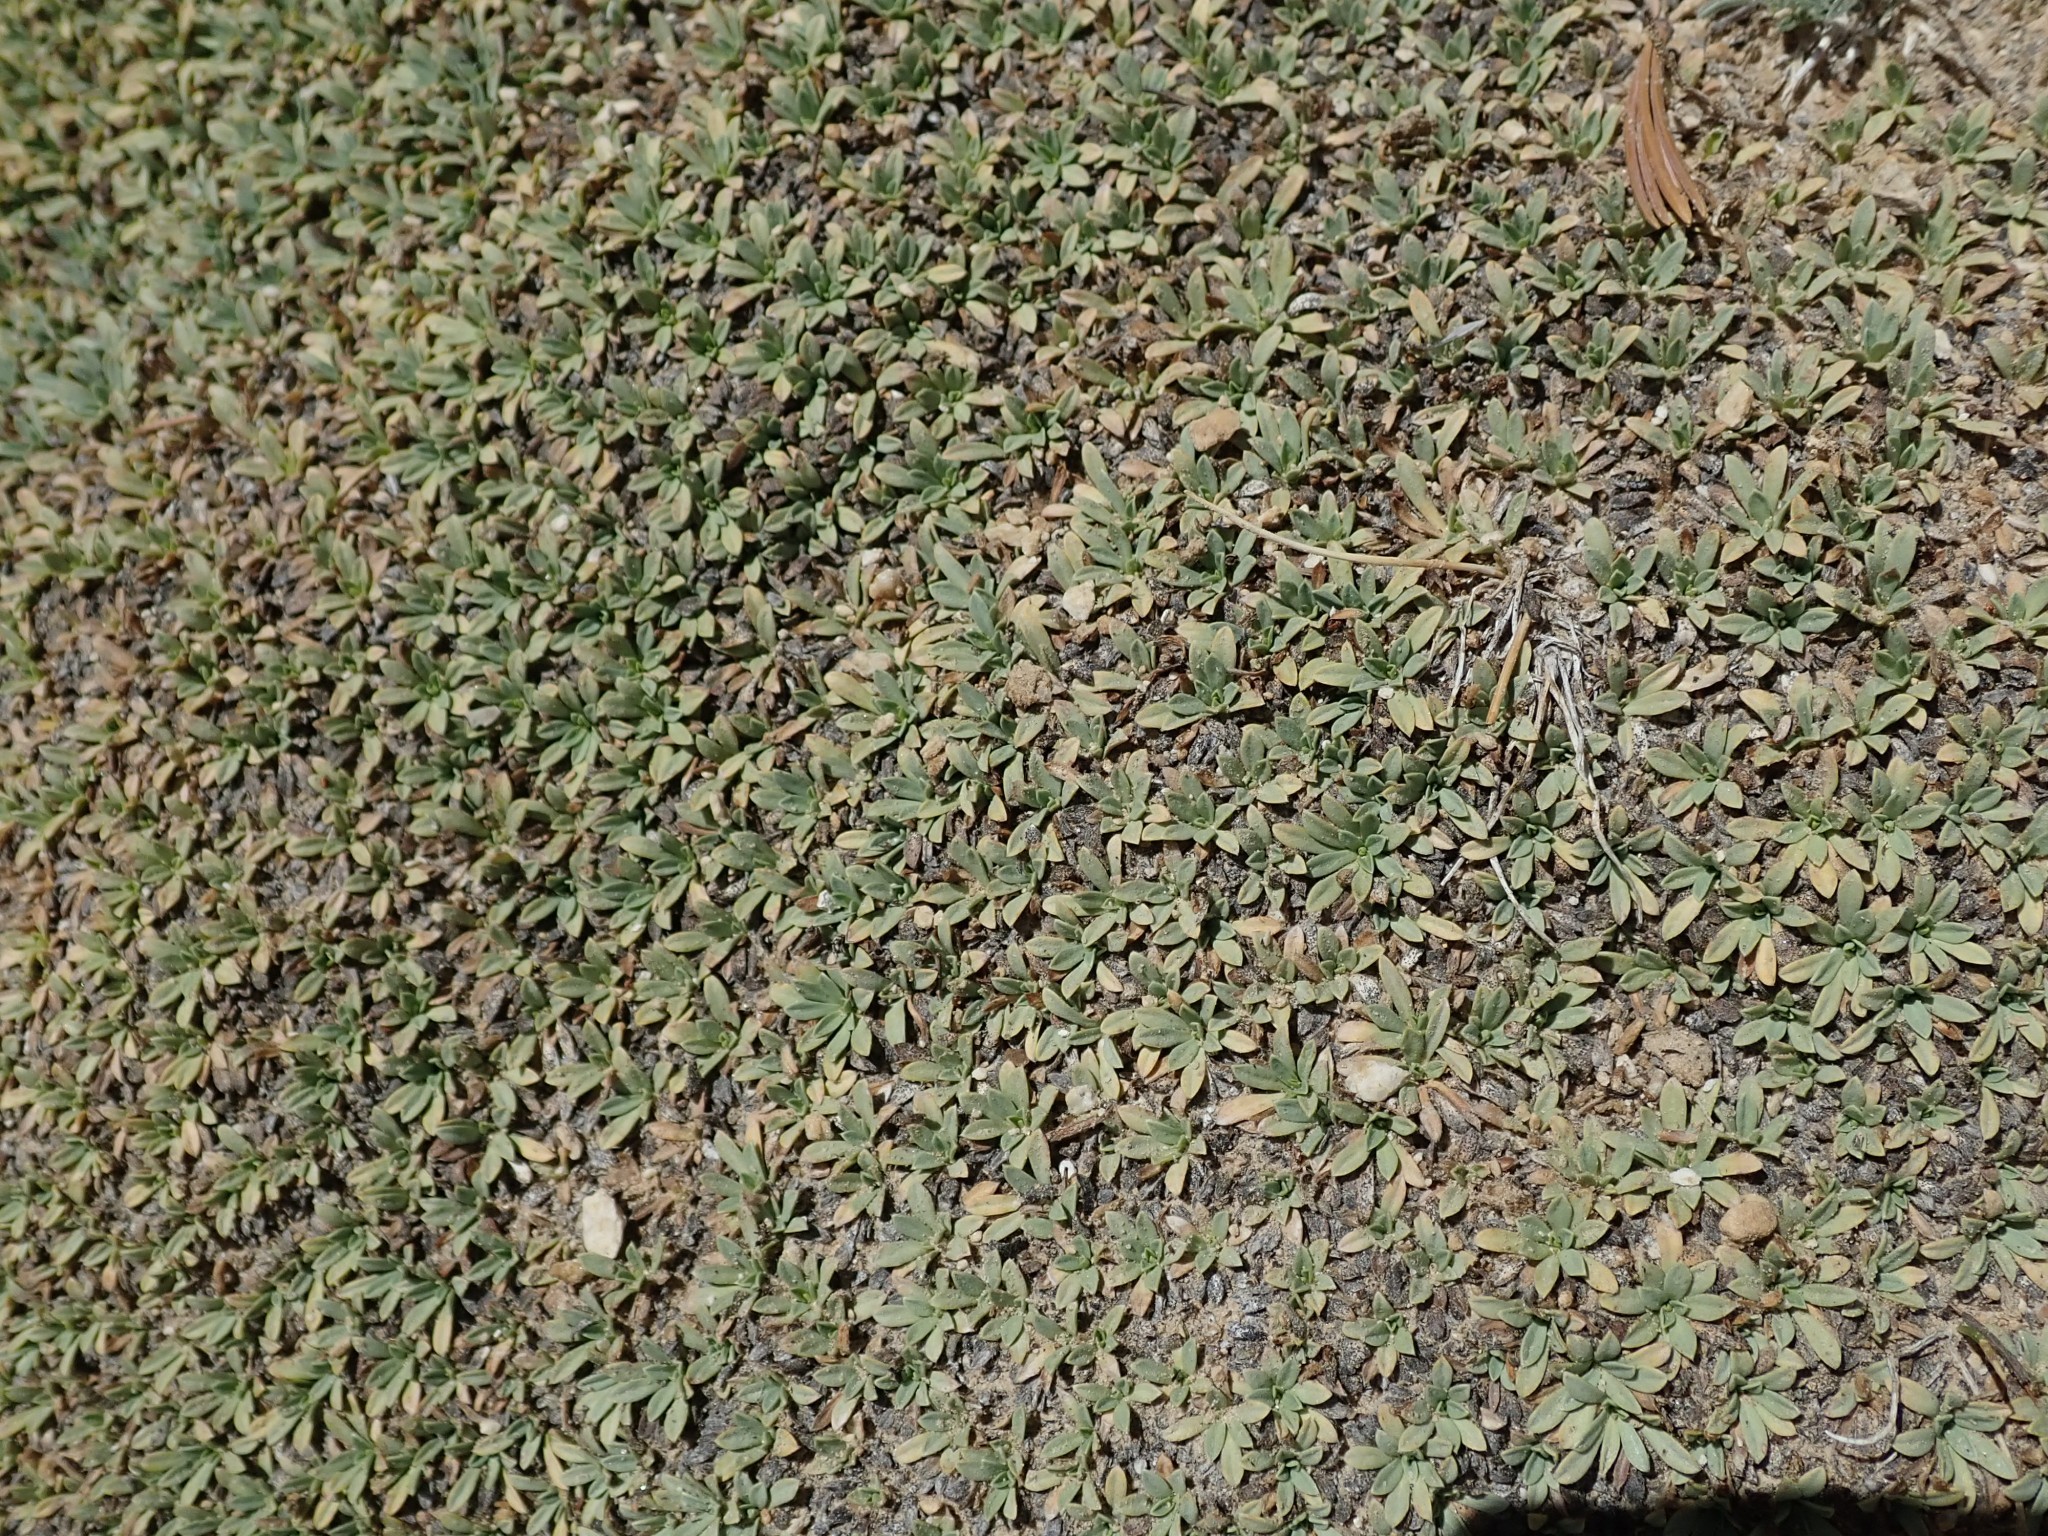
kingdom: Plantae
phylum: Tracheophyta
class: Magnoliopsida
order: Rosales
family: Rosaceae
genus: Petrophytum
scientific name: Petrophytum caespitosum
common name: Mat rockspirea
